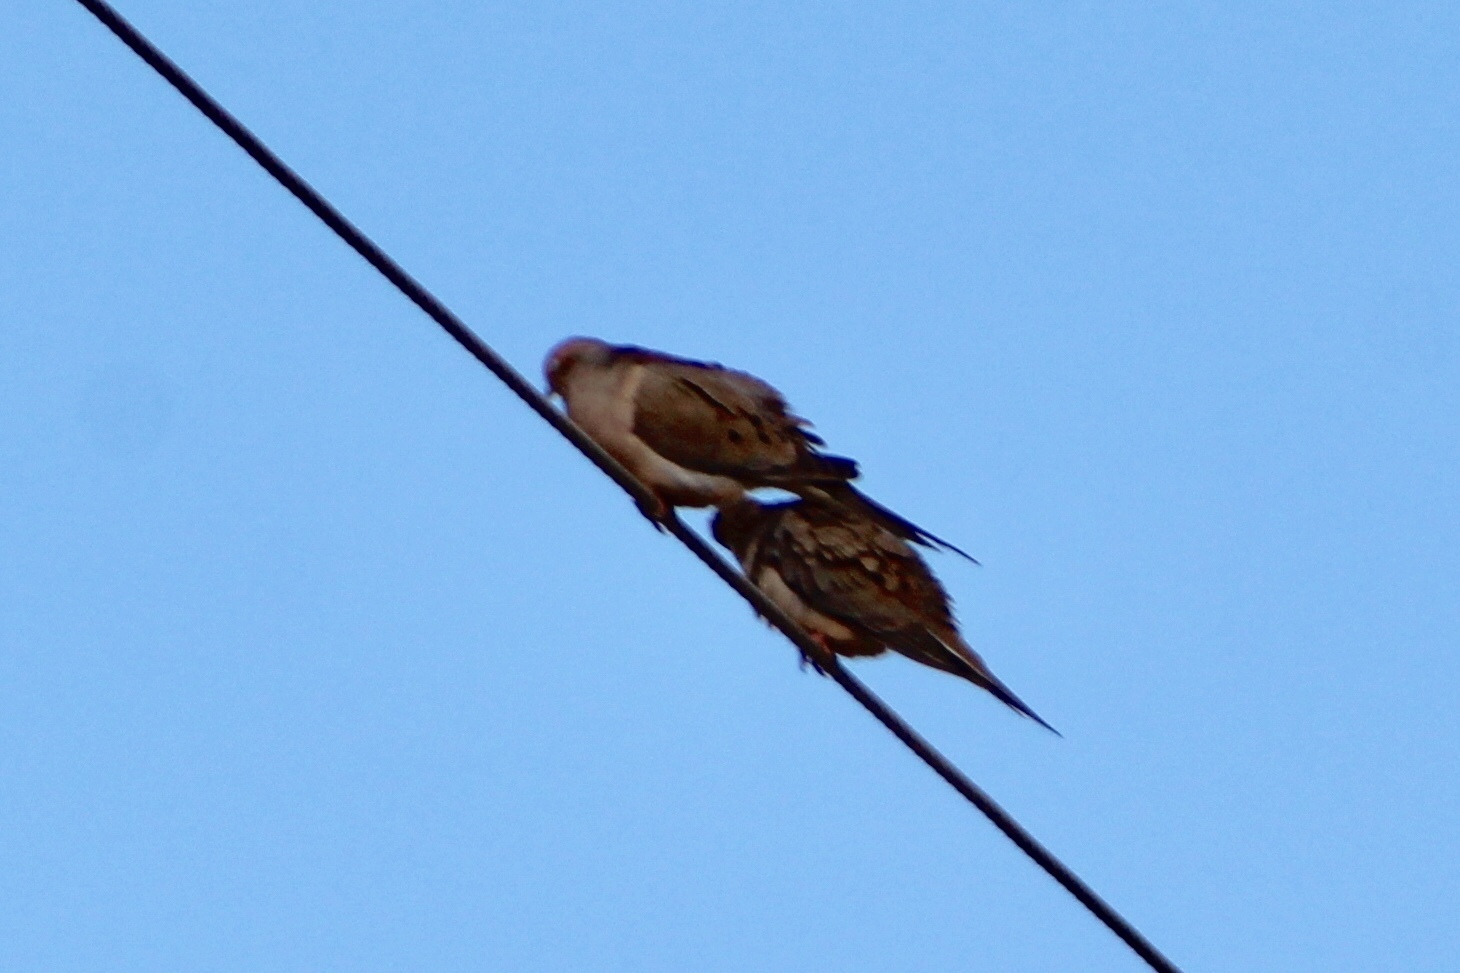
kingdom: Animalia
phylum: Chordata
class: Aves
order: Columbiformes
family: Columbidae
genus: Zenaida
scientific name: Zenaida macroura
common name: Mourning dove
